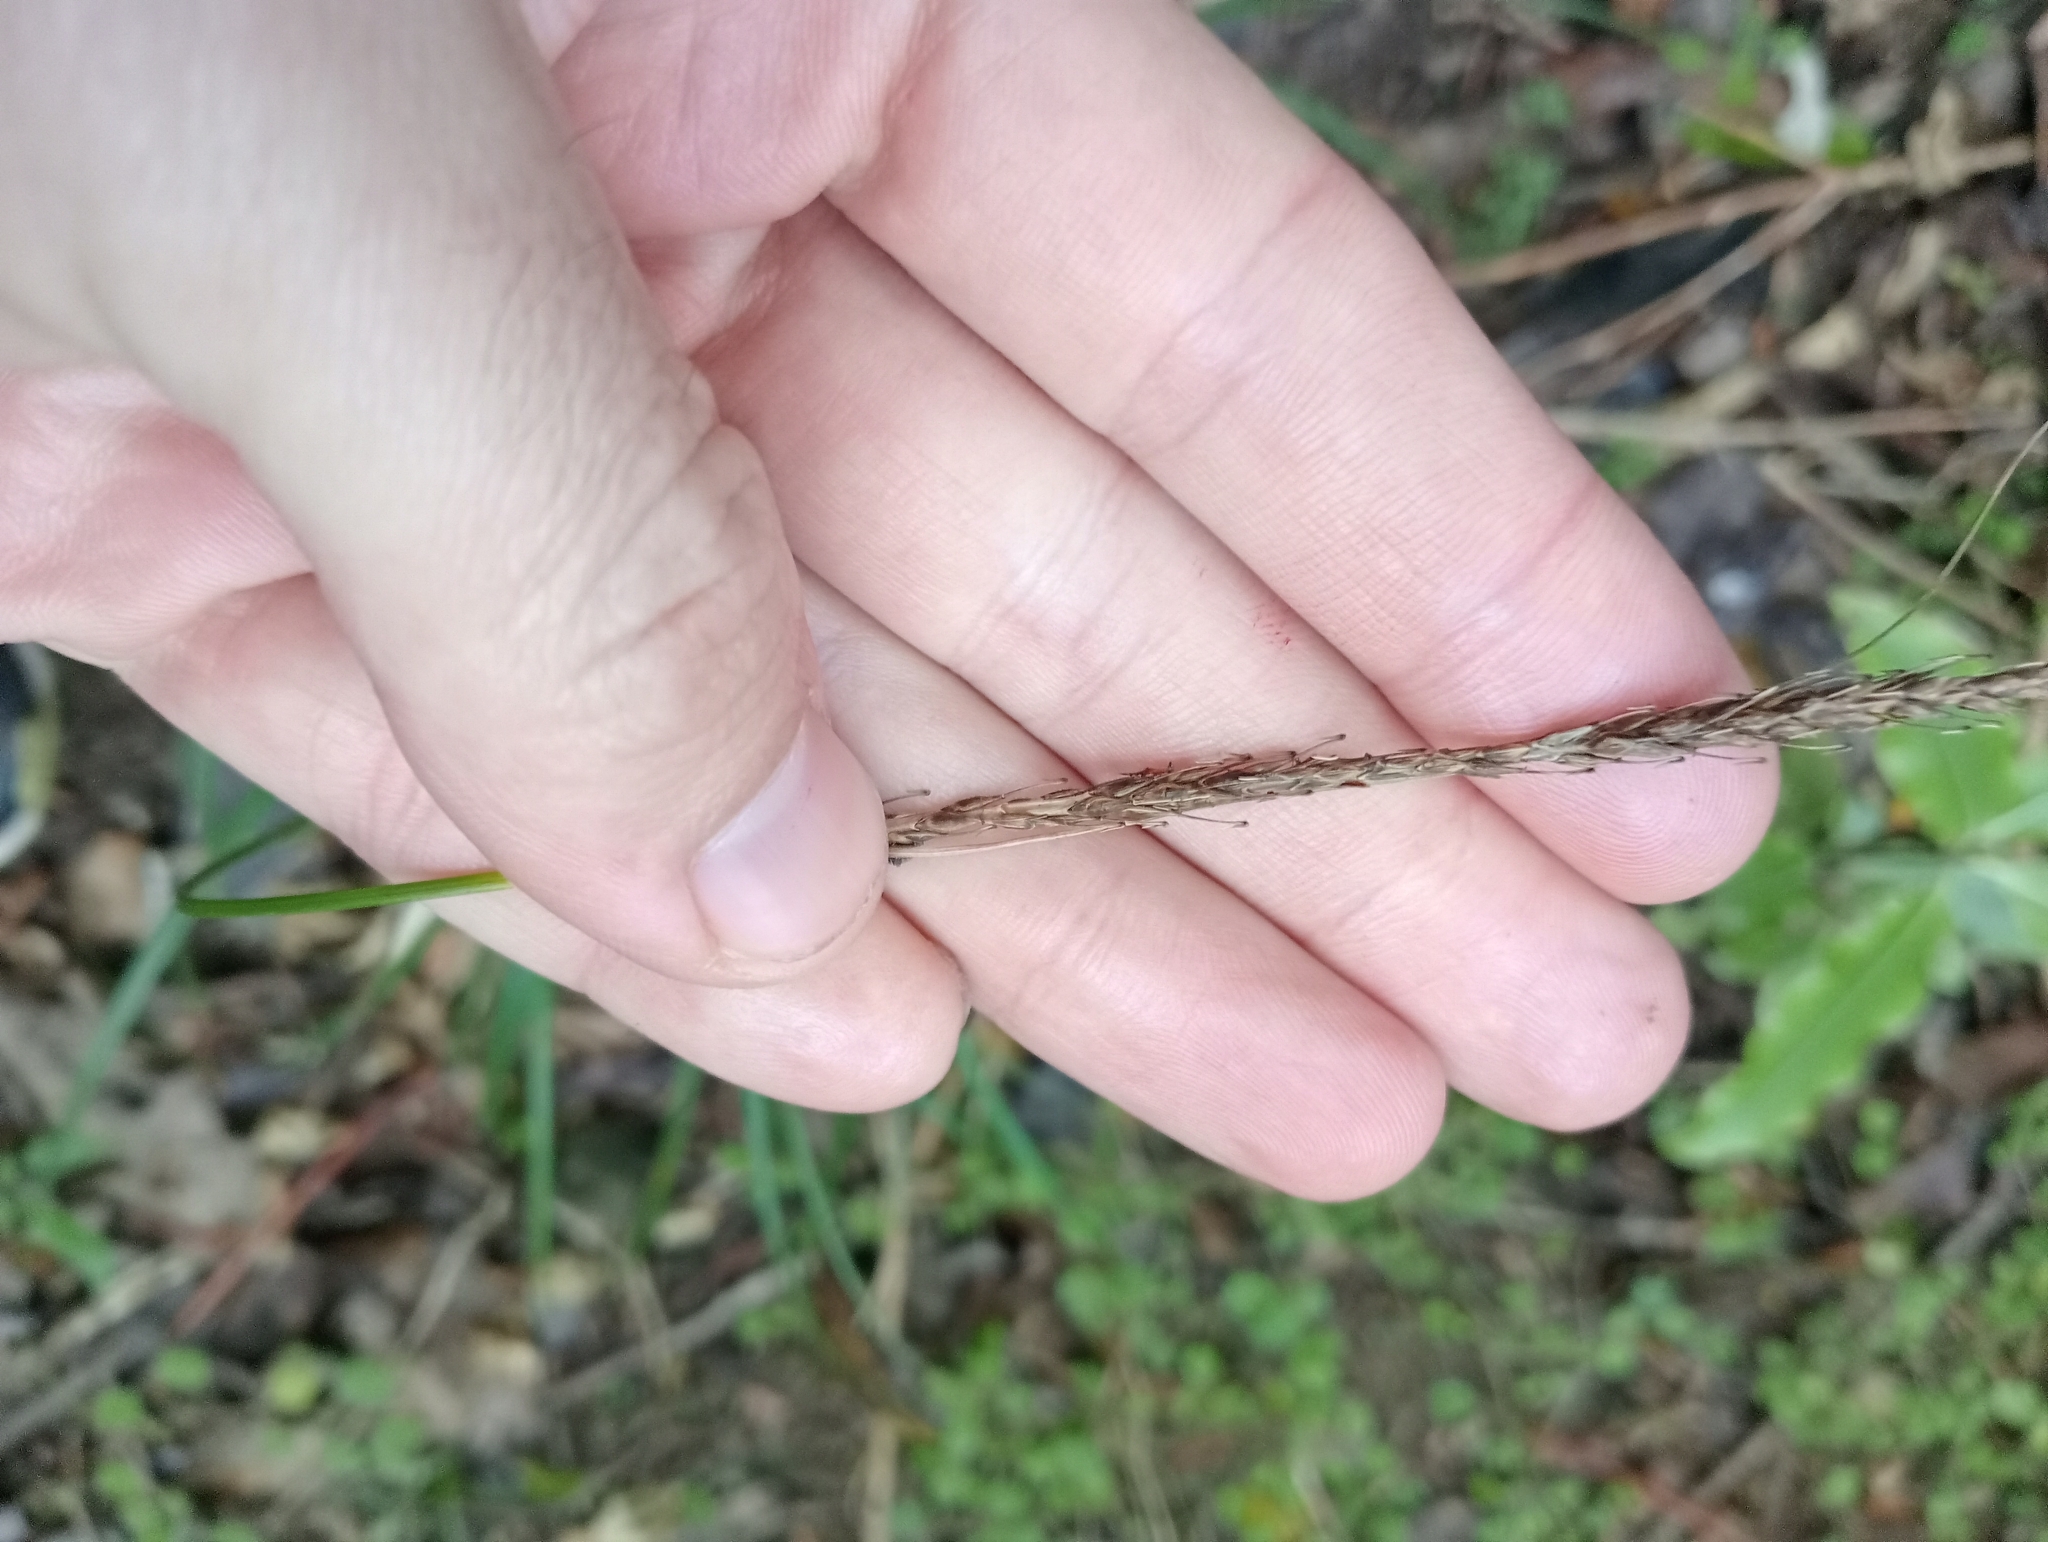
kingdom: Plantae
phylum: Tracheophyta
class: Liliopsida
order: Poales
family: Cyperaceae
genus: Carex
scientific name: Carex uncinata
